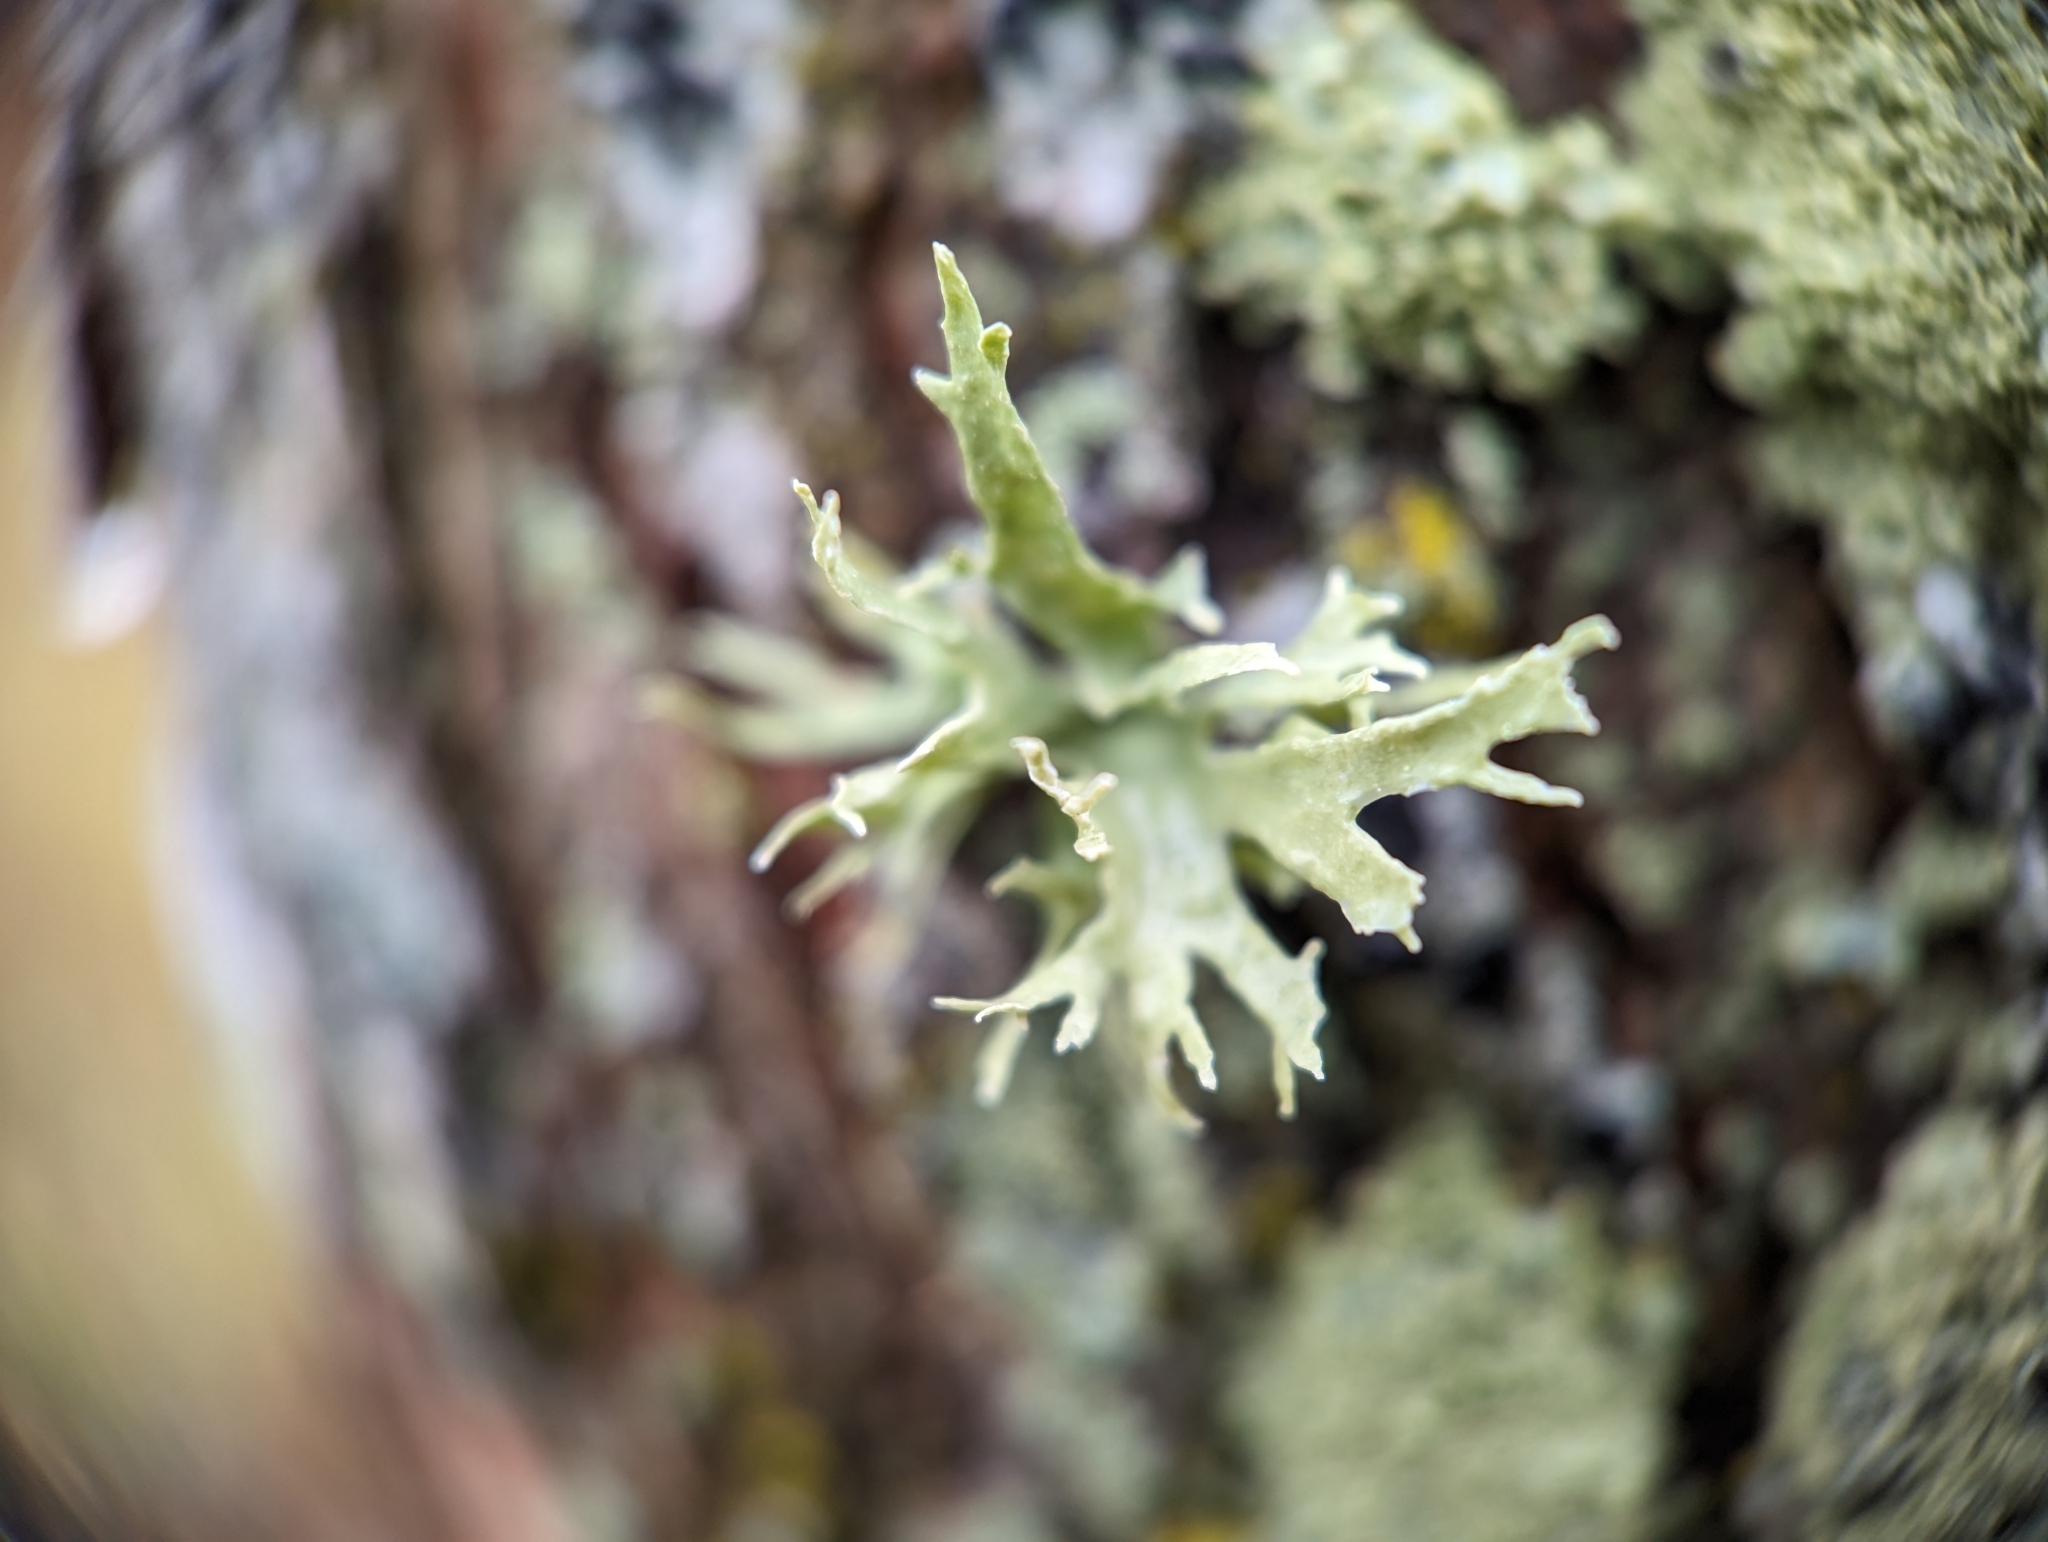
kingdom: Fungi
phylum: Ascomycota
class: Lecanoromycetes
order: Lecanorales
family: Ramalinaceae
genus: Ramalina
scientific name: Ramalina americana
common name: Sinewed bush lichen
